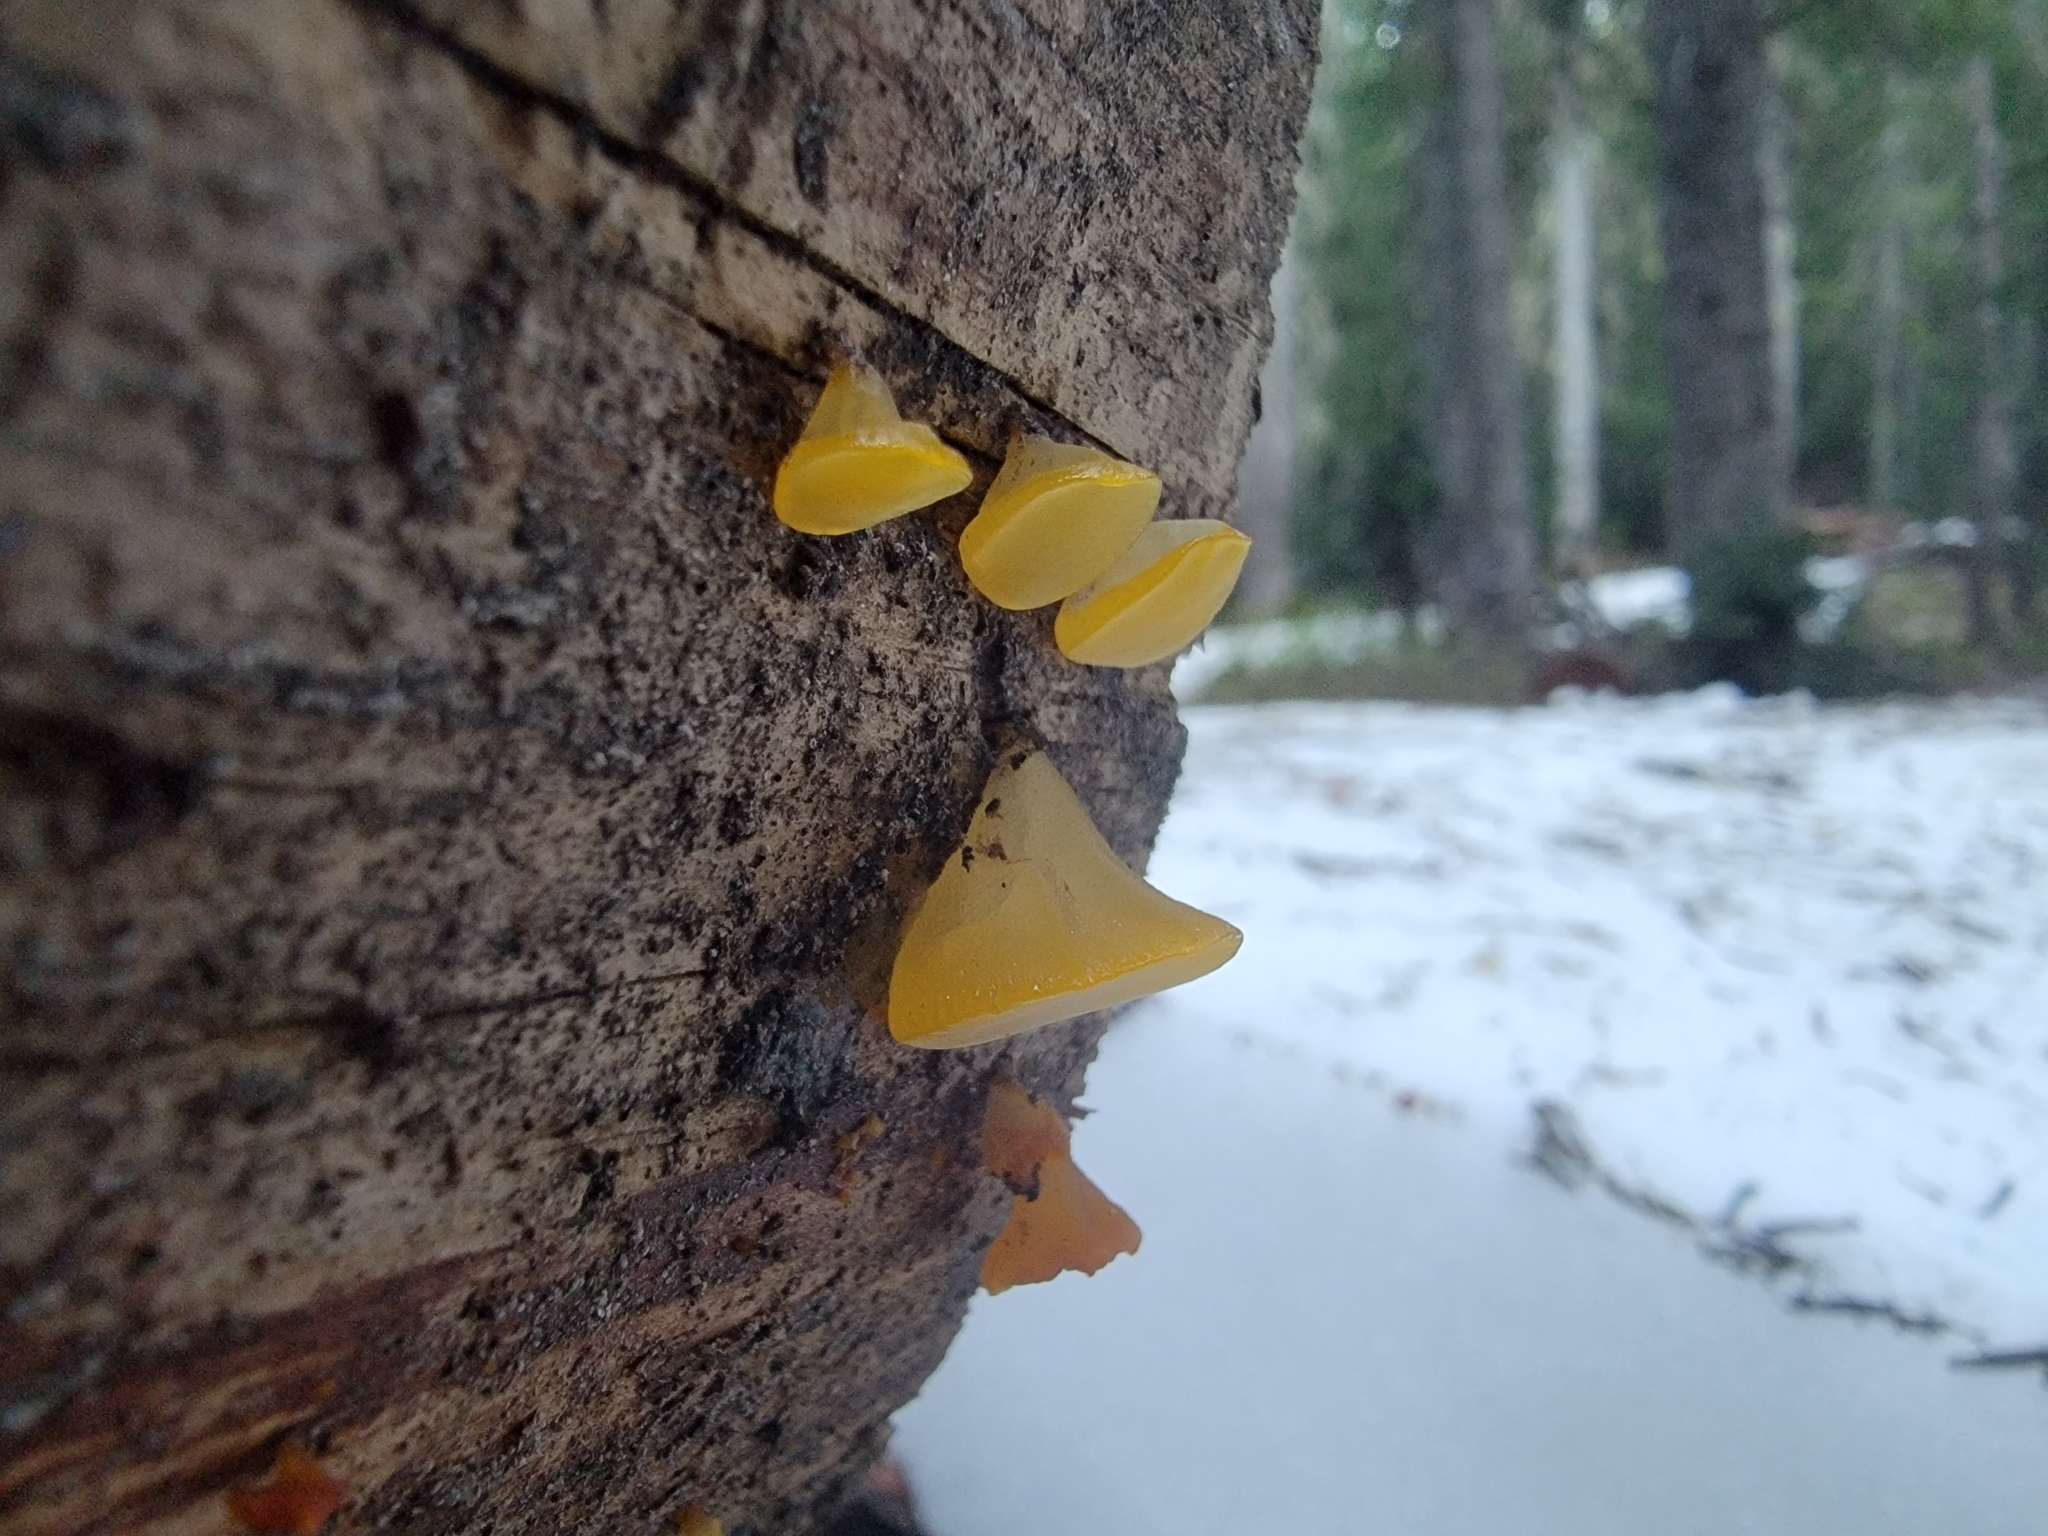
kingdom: Fungi
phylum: Basidiomycota
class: Dacrymycetes
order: Dacrymycetales
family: Dacrymycetaceae
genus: Guepiniopsis
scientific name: Guepiniopsis alpina
